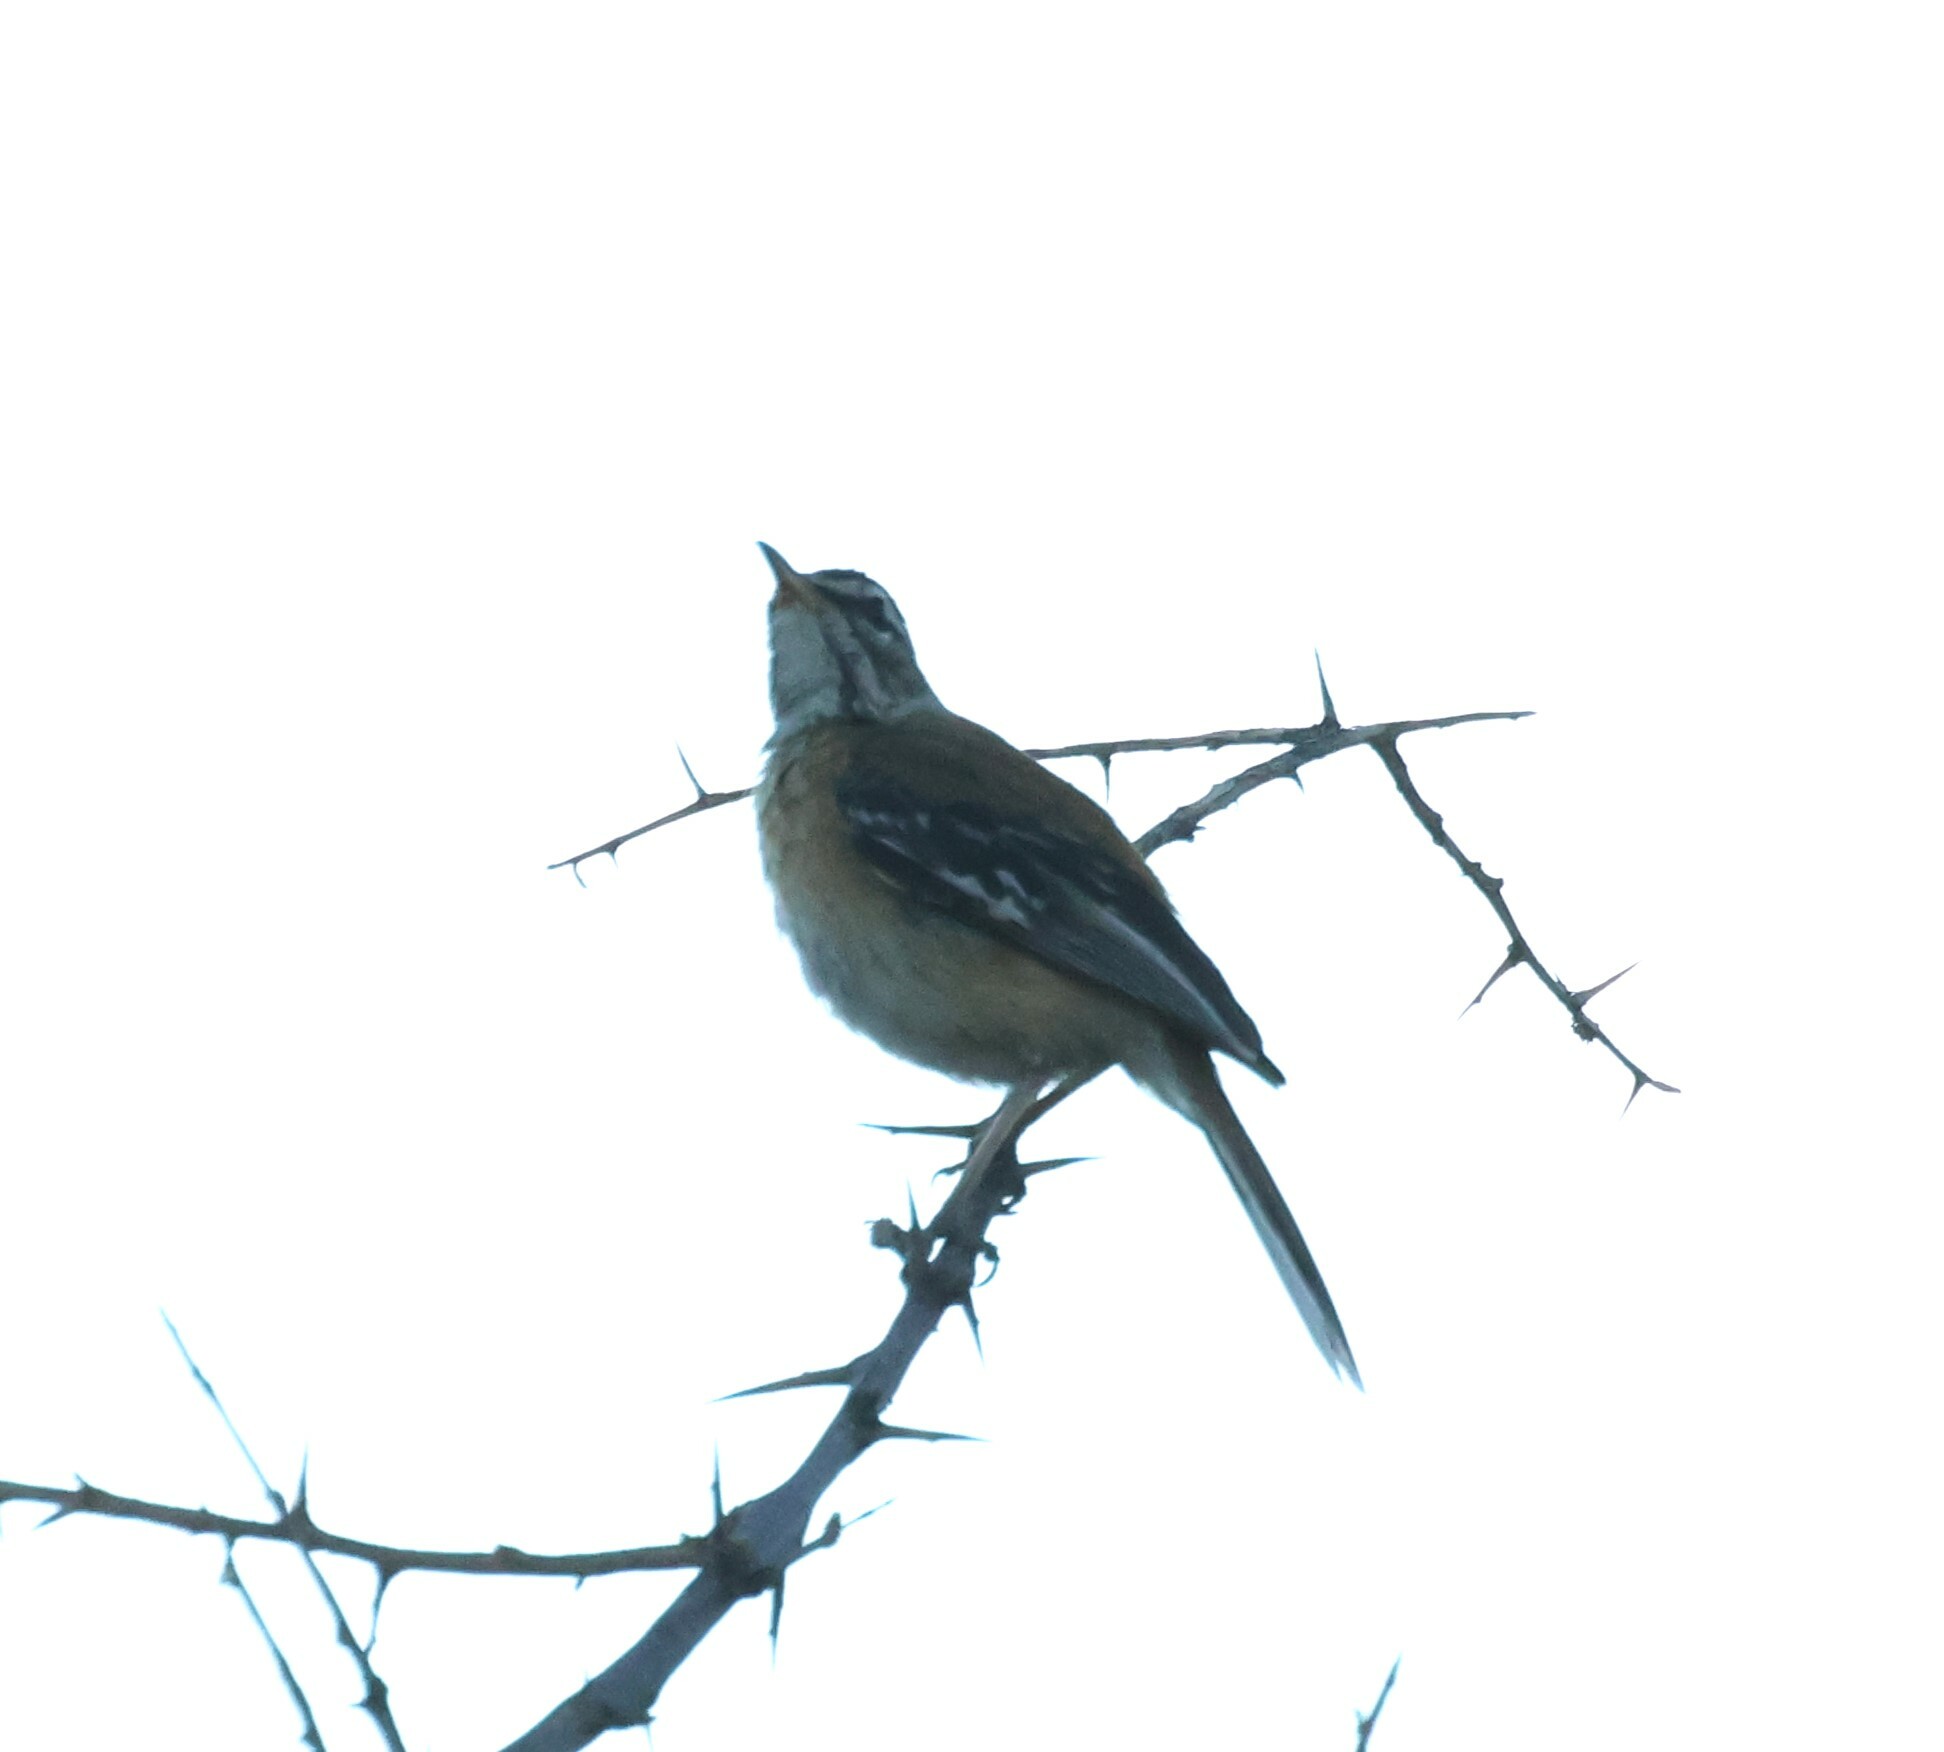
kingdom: Animalia
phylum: Chordata
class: Aves
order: Passeriformes
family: Muscicapidae
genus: Erythropygia
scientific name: Erythropygia leucophrys
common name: White-browed scrub robin
